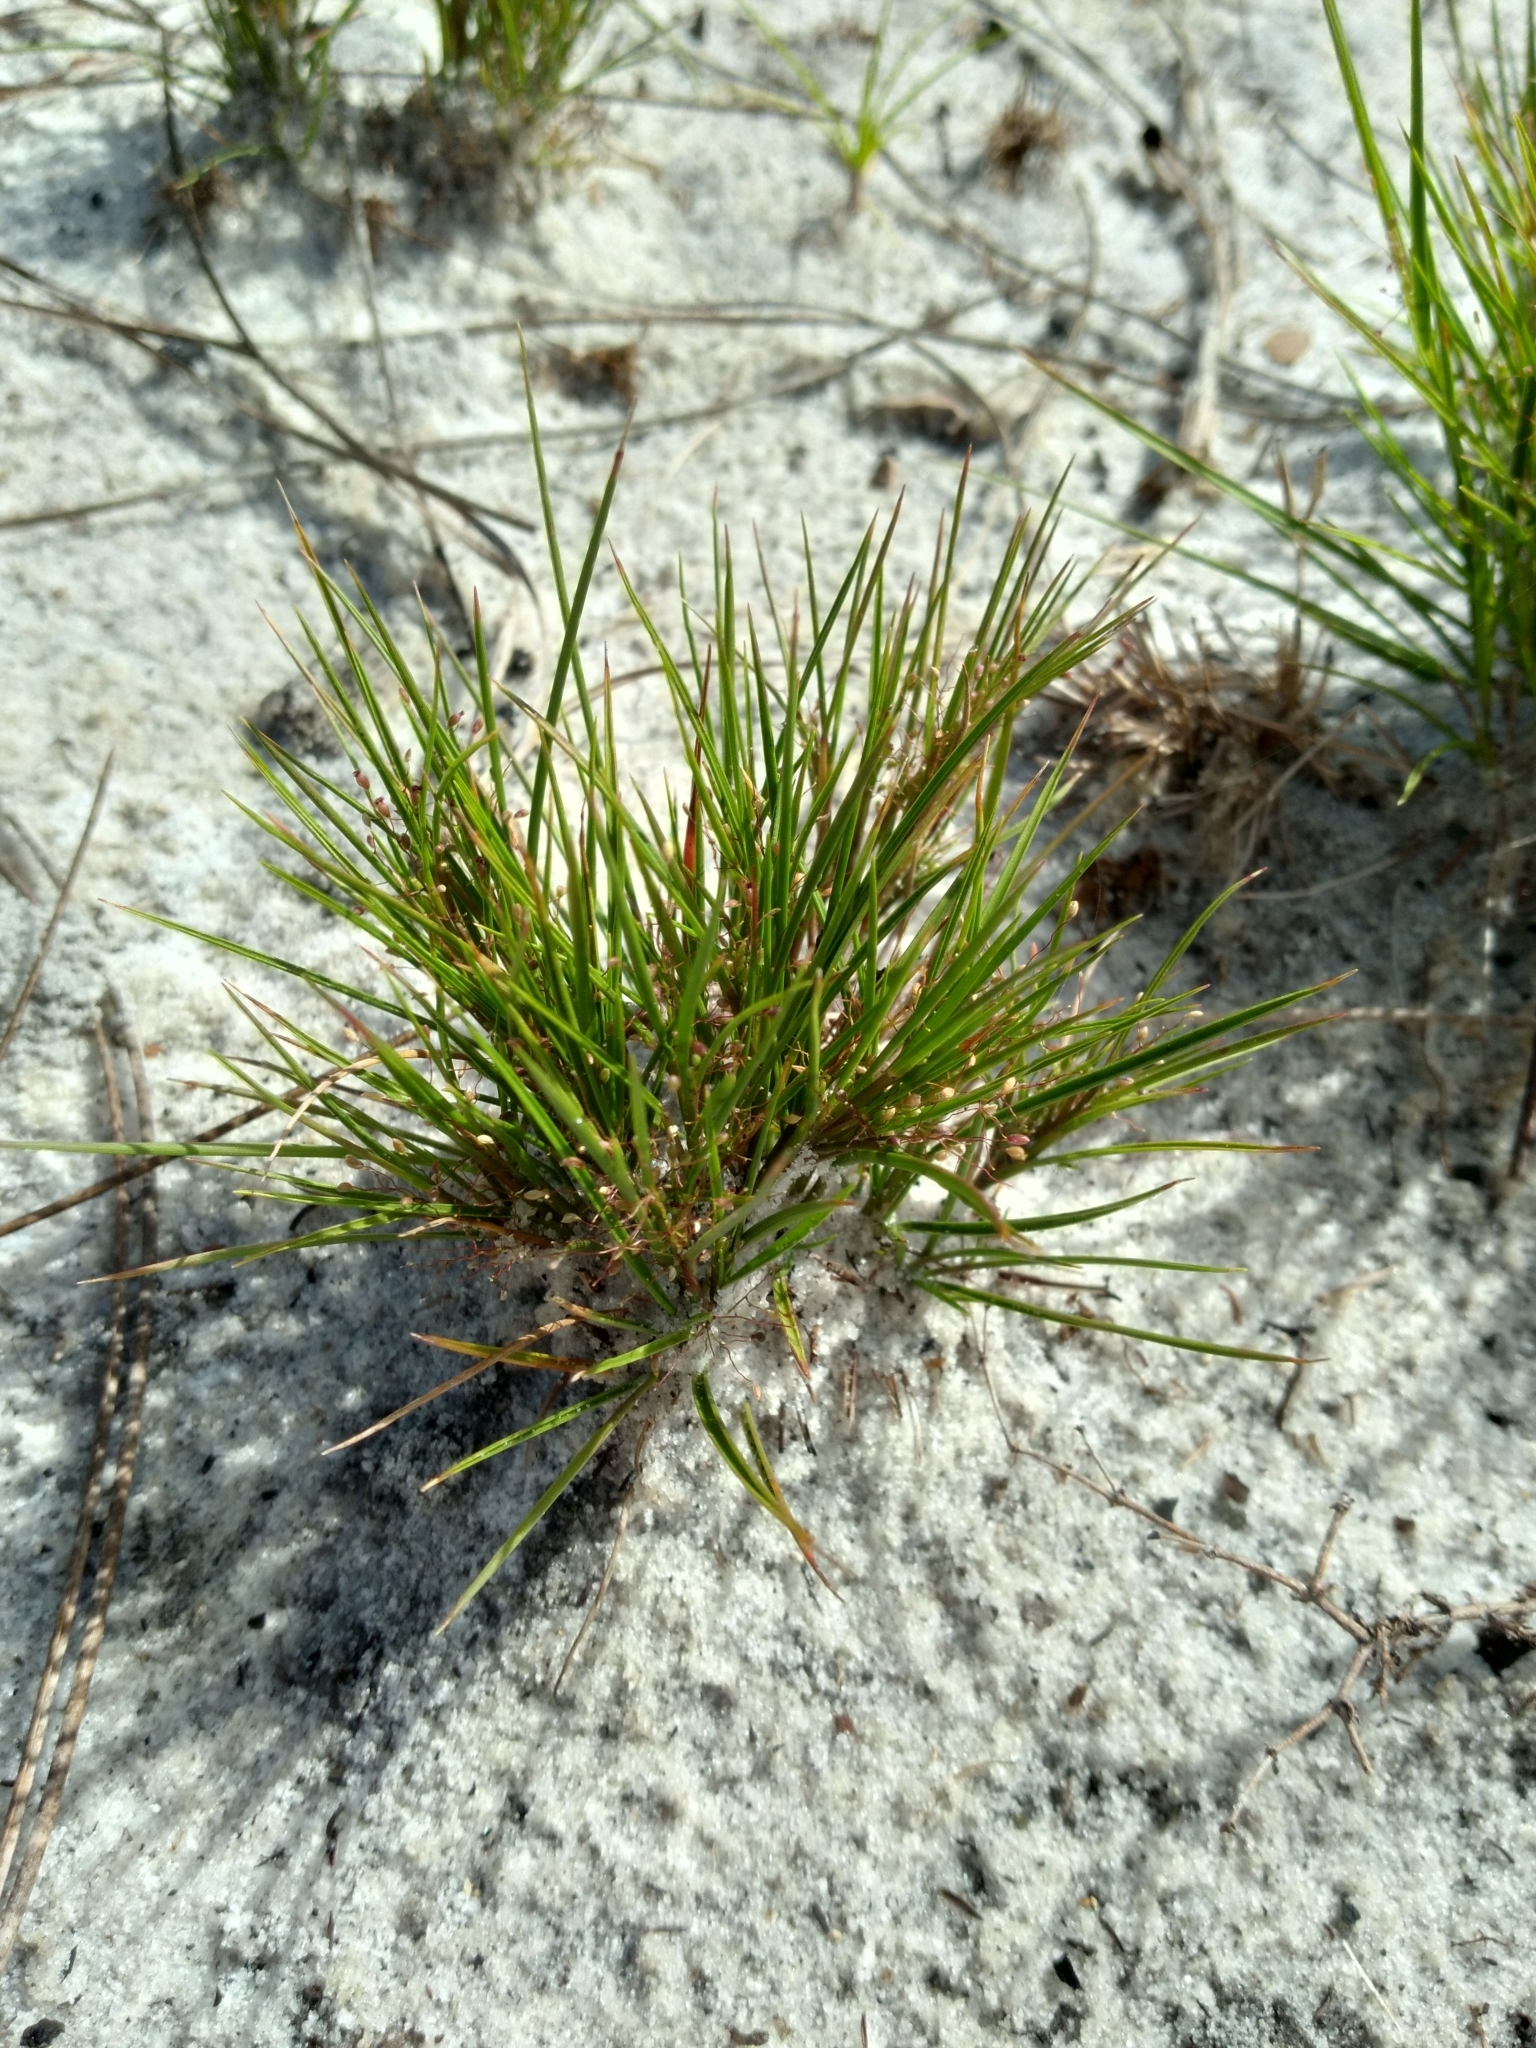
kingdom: Plantae
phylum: Tracheophyta
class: Liliopsida
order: Poales
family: Poaceae
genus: Dichanthelium
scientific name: Dichanthelium breve
